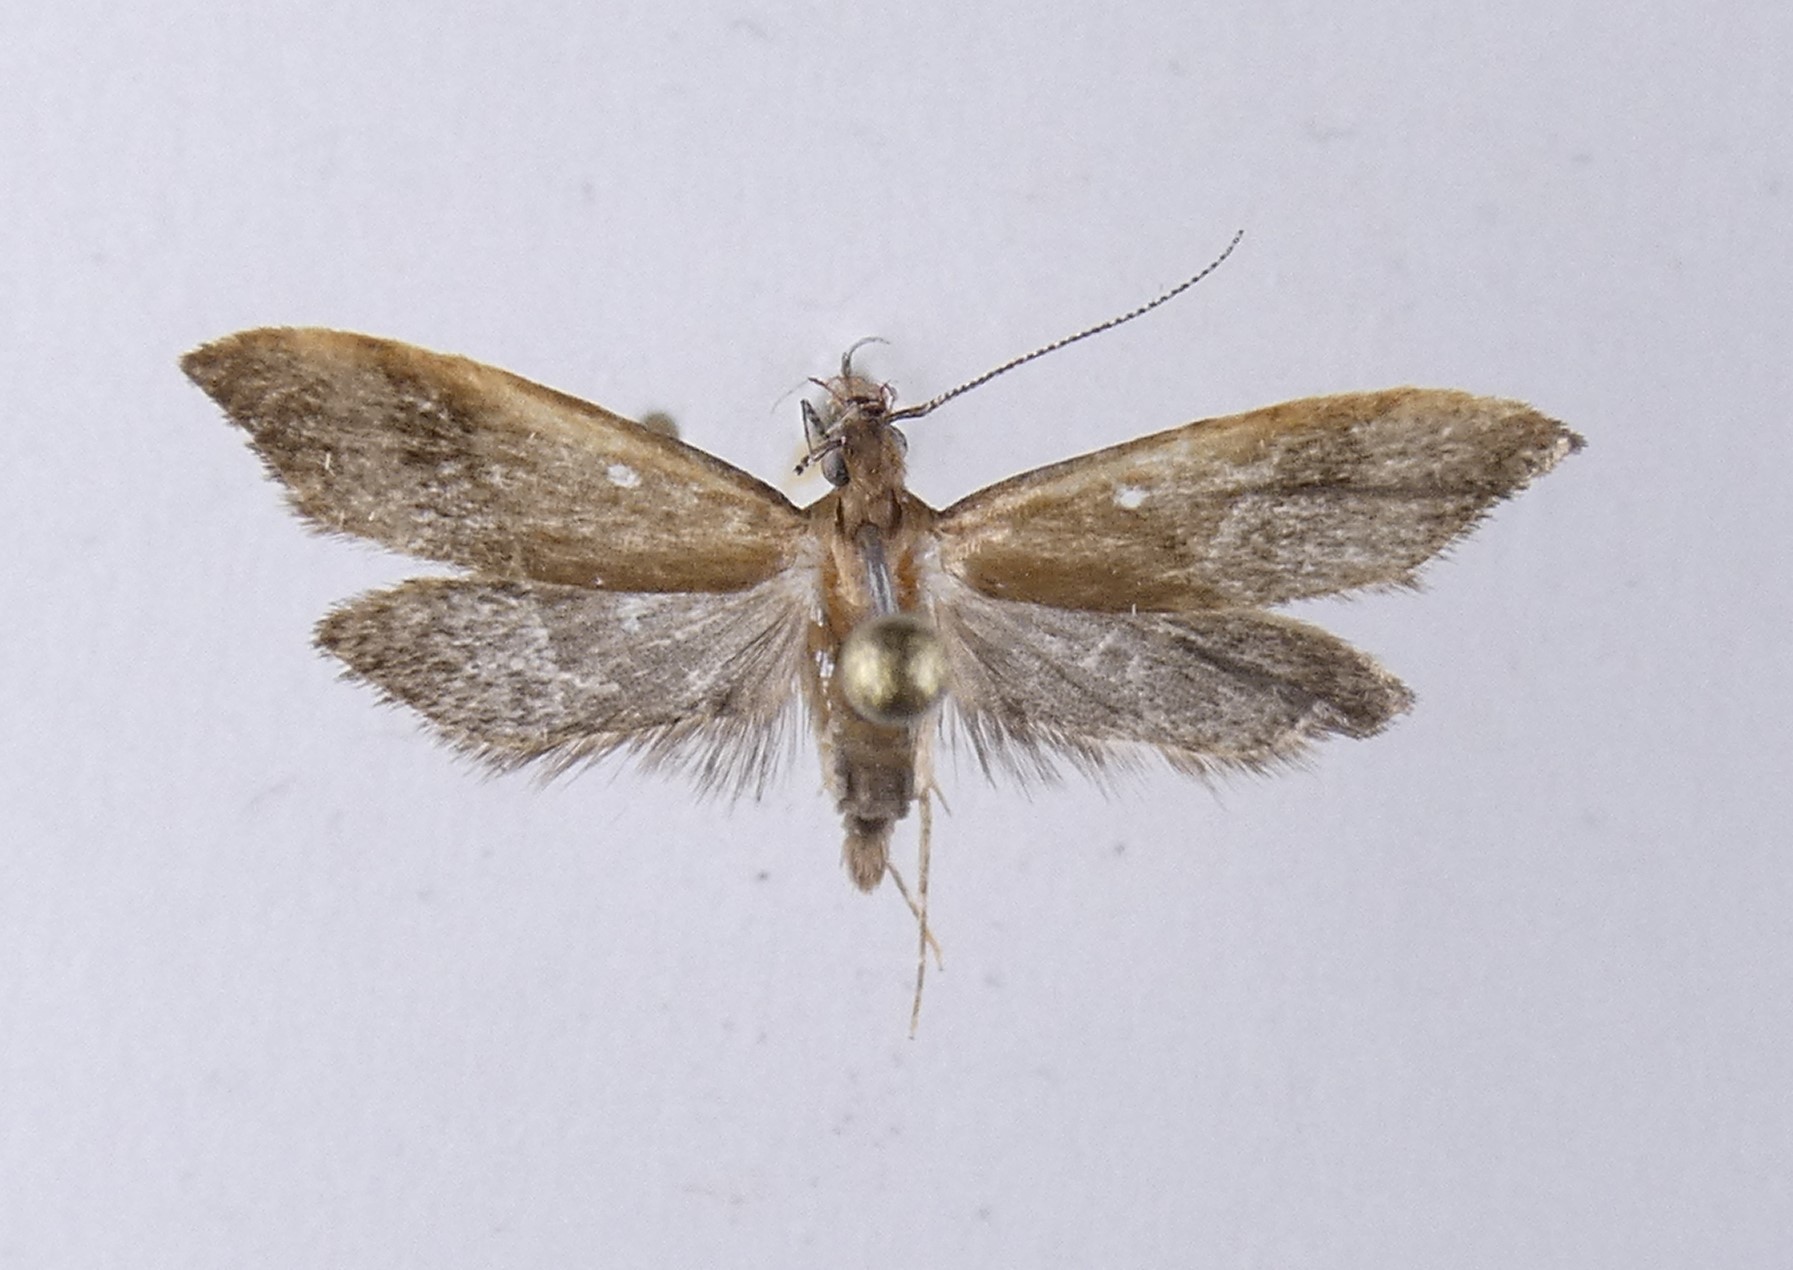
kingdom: Animalia
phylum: Arthropoda
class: Insecta
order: Lepidoptera
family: Oecophoridae
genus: Gymnobathra
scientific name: Gymnobathra hyetodes
